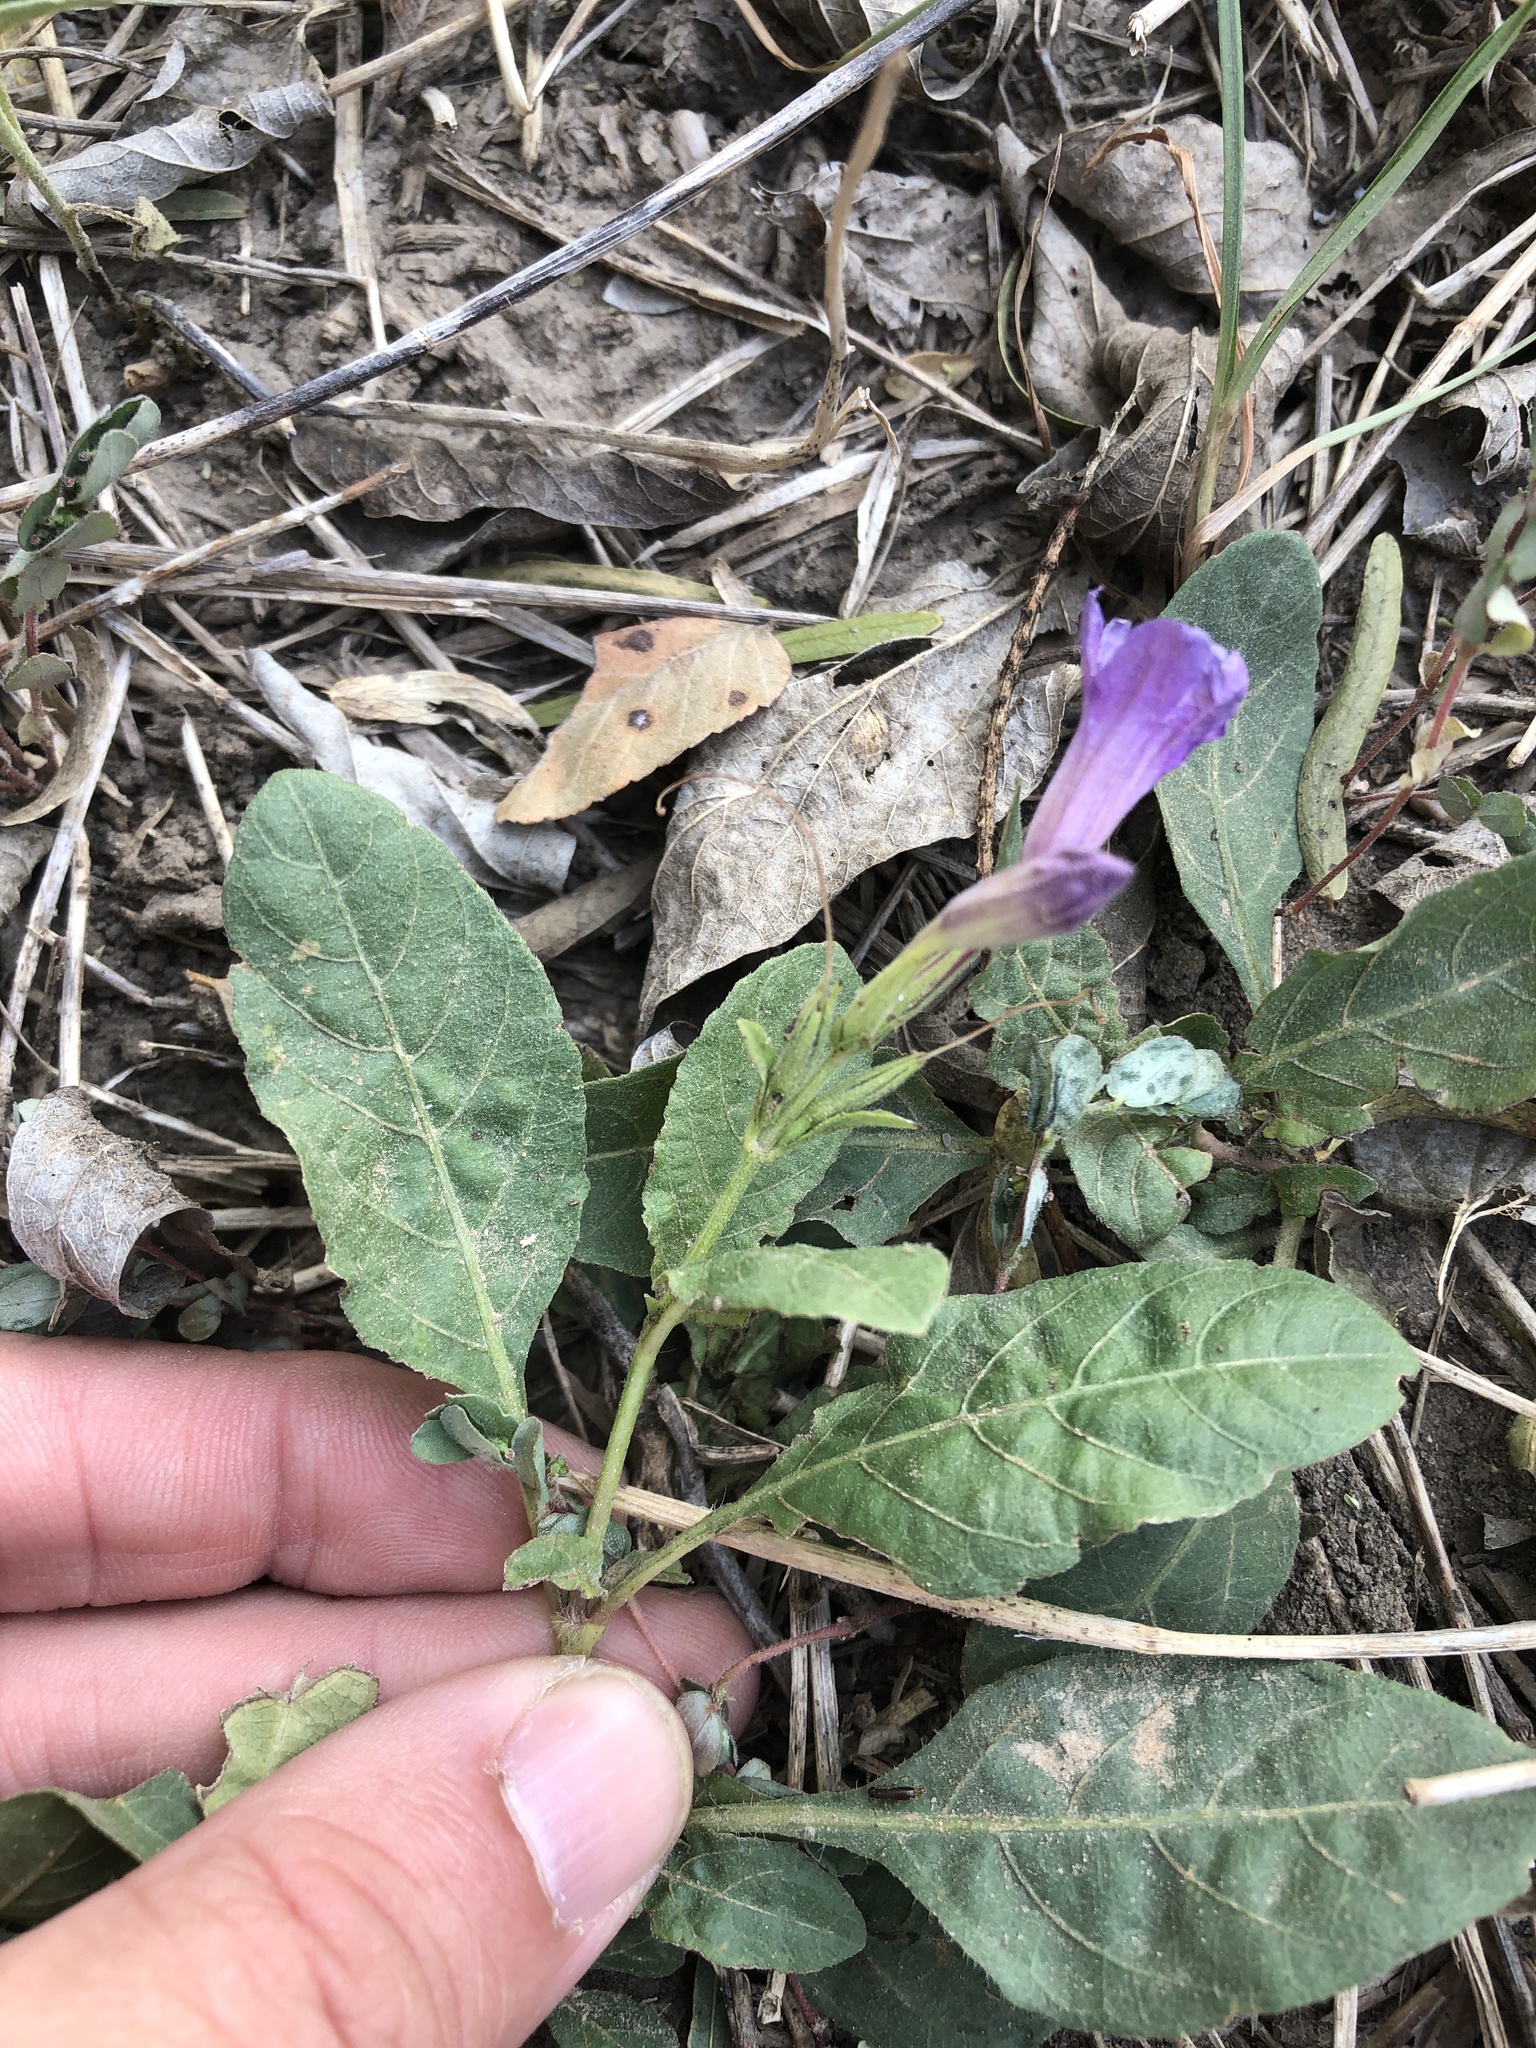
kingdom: Plantae
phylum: Tracheophyta
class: Magnoliopsida
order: Lamiales
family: Acanthaceae
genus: Ruellia
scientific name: Ruellia ciliatiflora
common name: Hairyflower wild petunia
